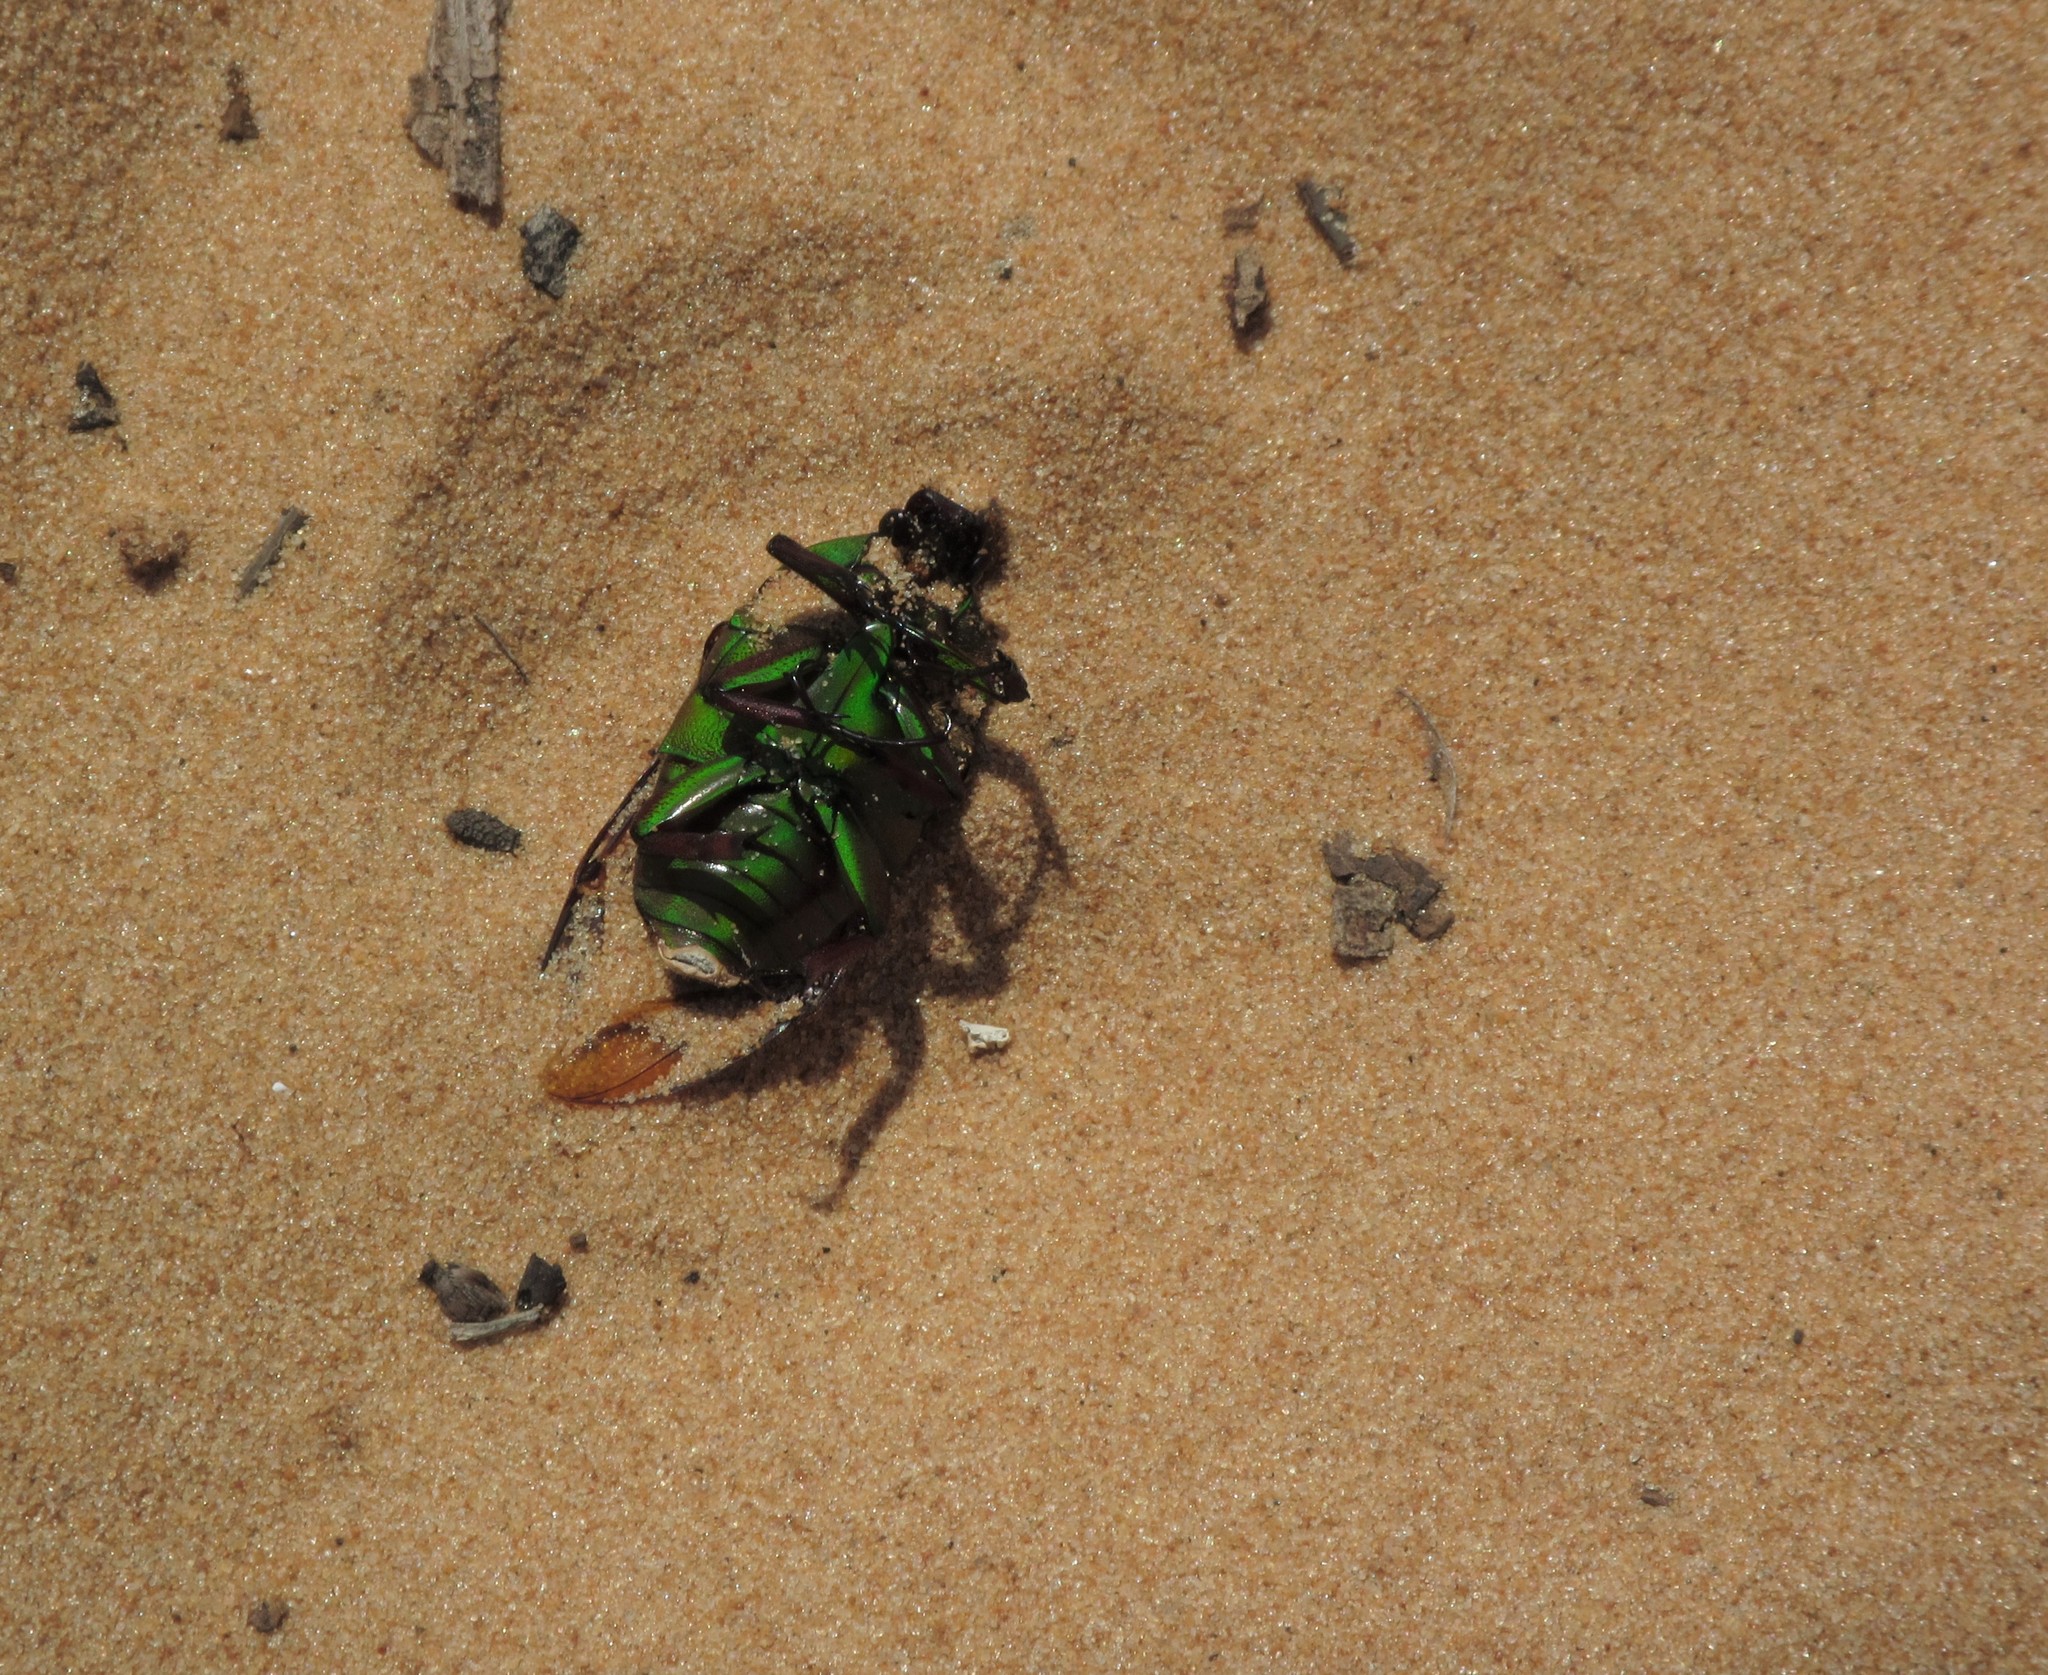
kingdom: Animalia
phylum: Arthropoda
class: Insecta
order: Coleoptera
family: Scarabaeidae
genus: Eudicella
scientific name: Eudicella daphnis
